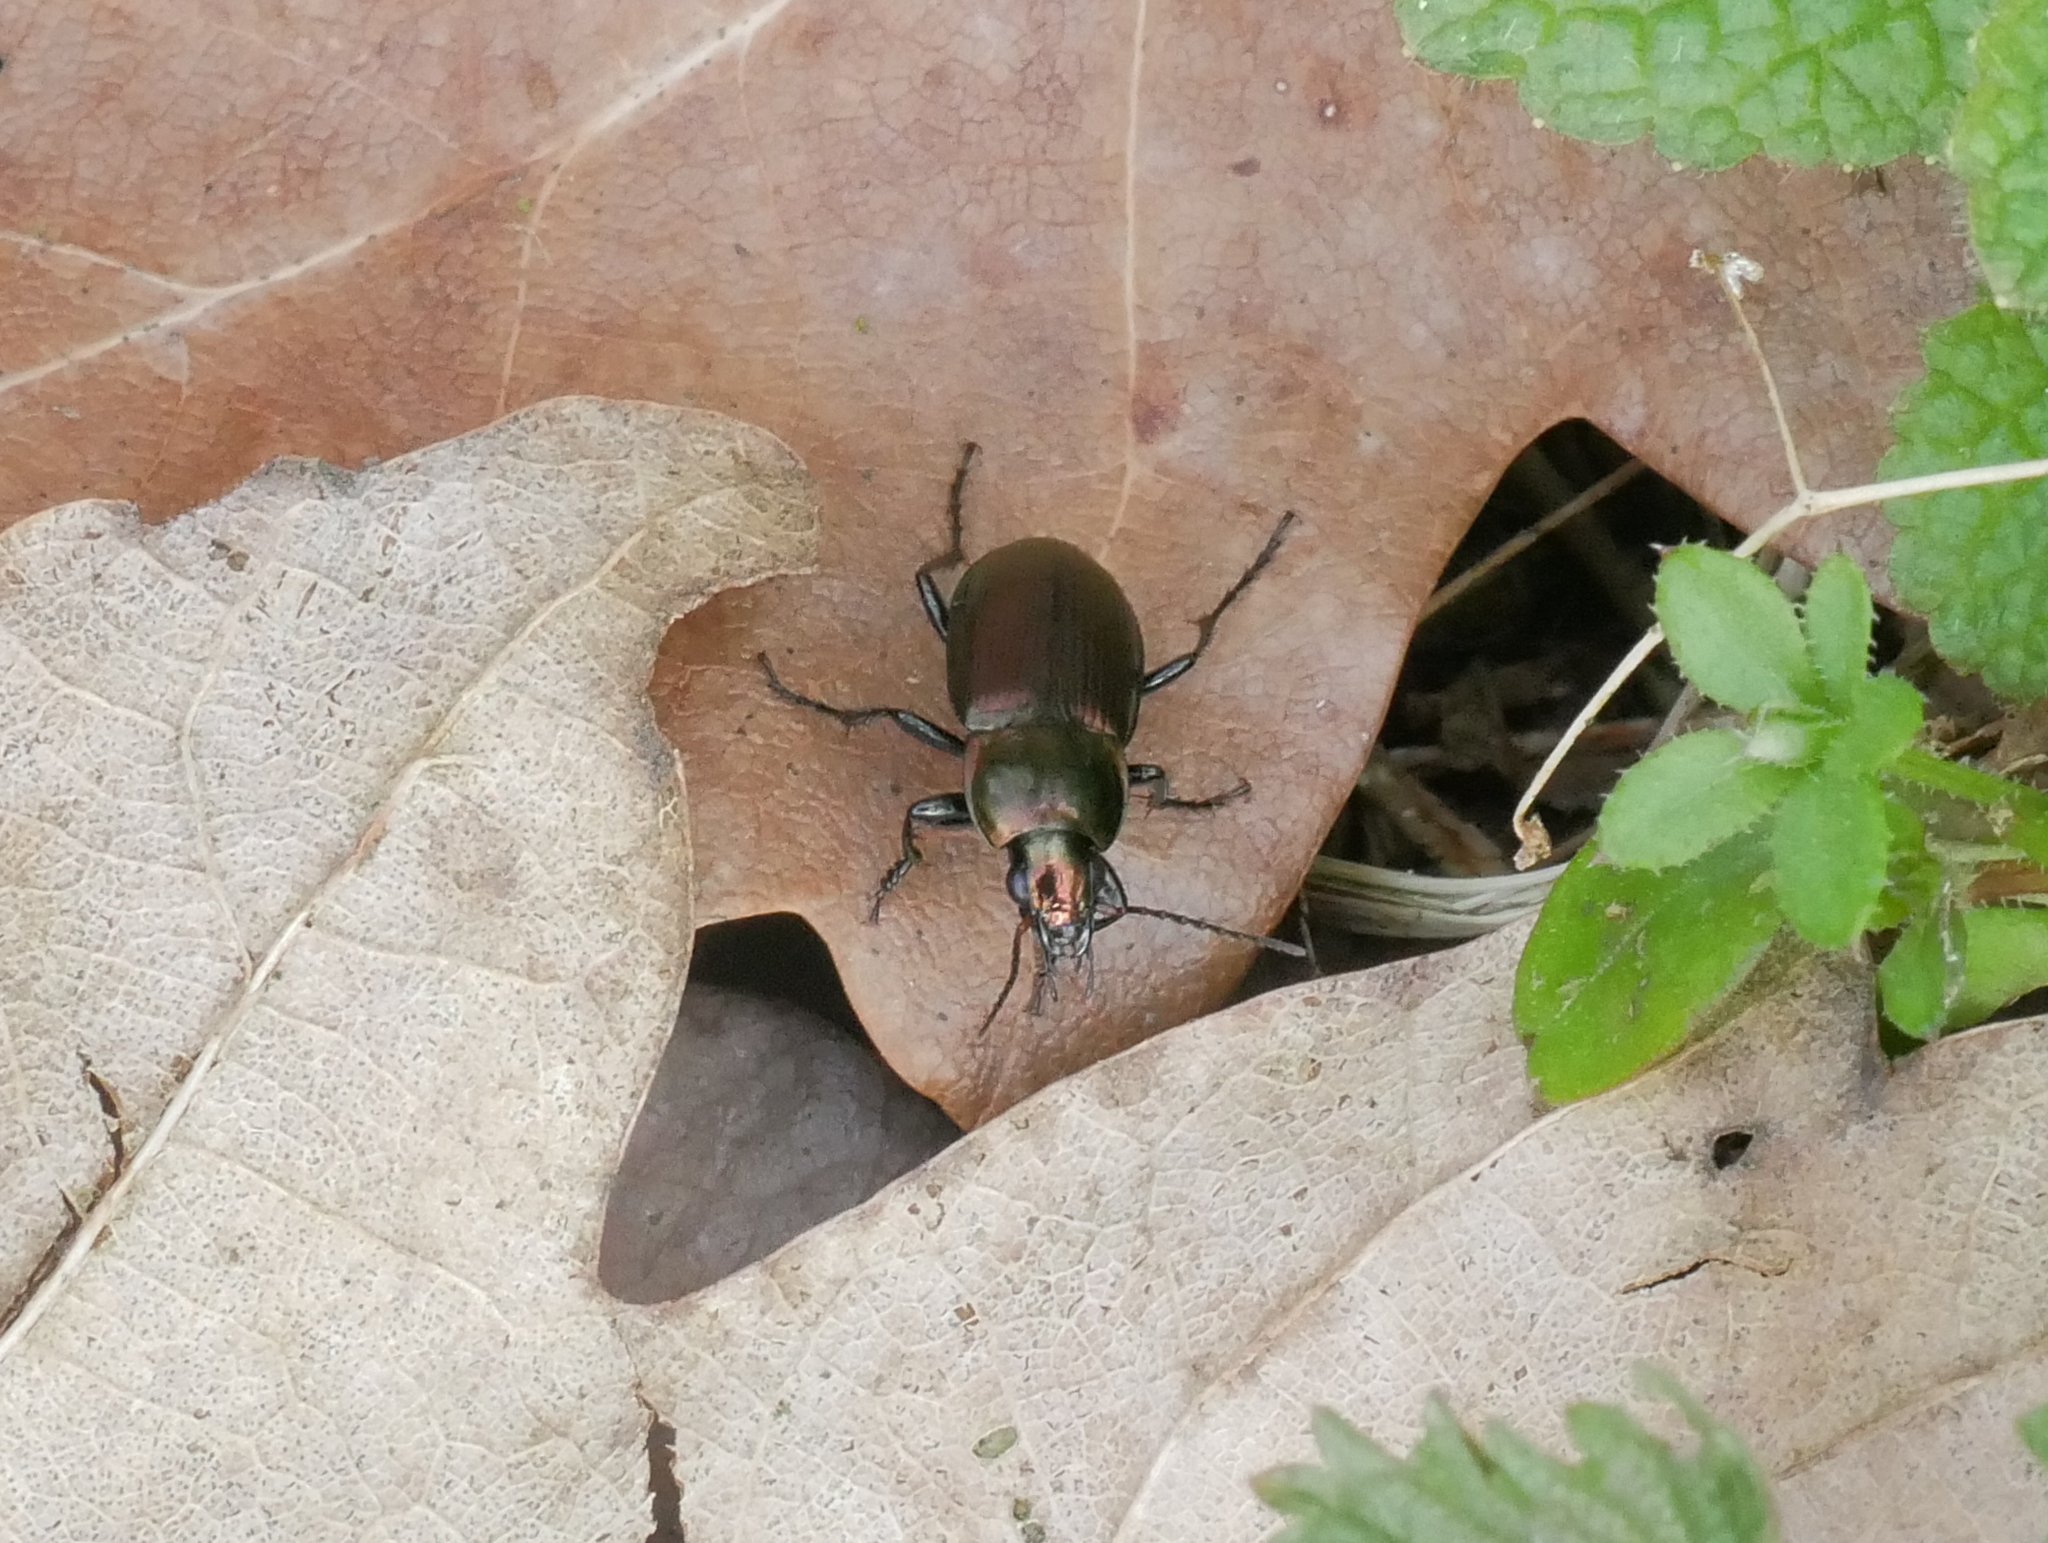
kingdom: Animalia
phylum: Arthropoda
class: Insecta
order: Coleoptera
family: Carabidae
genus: Poecilus
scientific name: Poecilus versicolor
